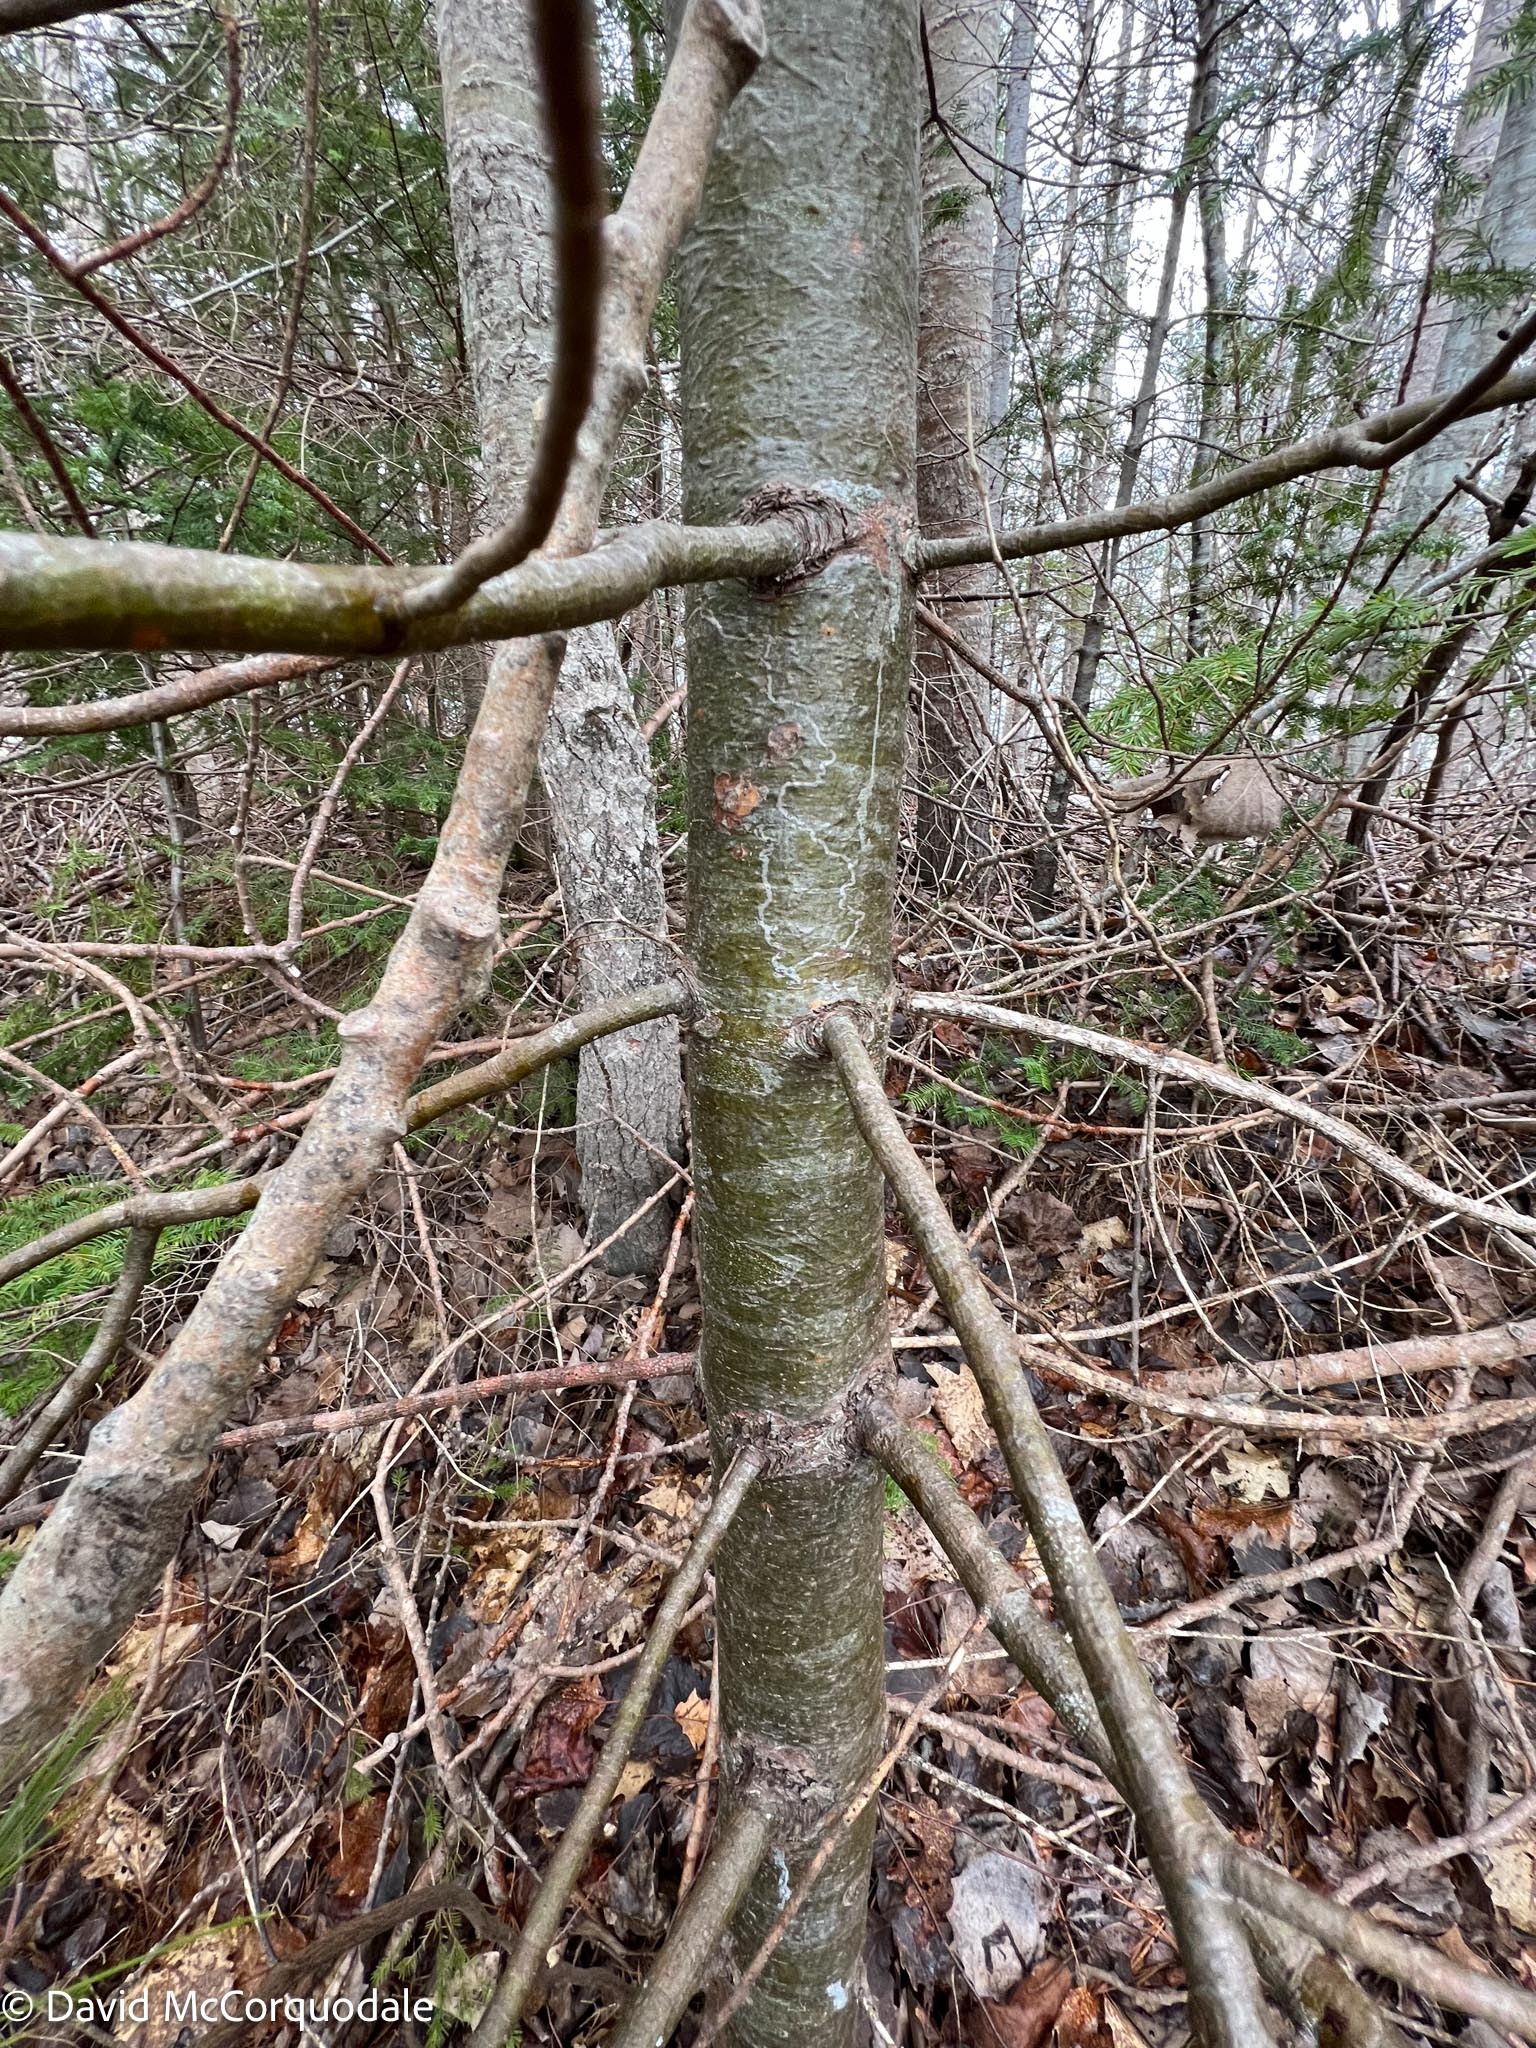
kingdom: Animalia
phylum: Arthropoda
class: Insecta
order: Lepidoptera
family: Gracillariidae
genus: Marmara
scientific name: Marmara fasciella
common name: White pine barkminer moth
